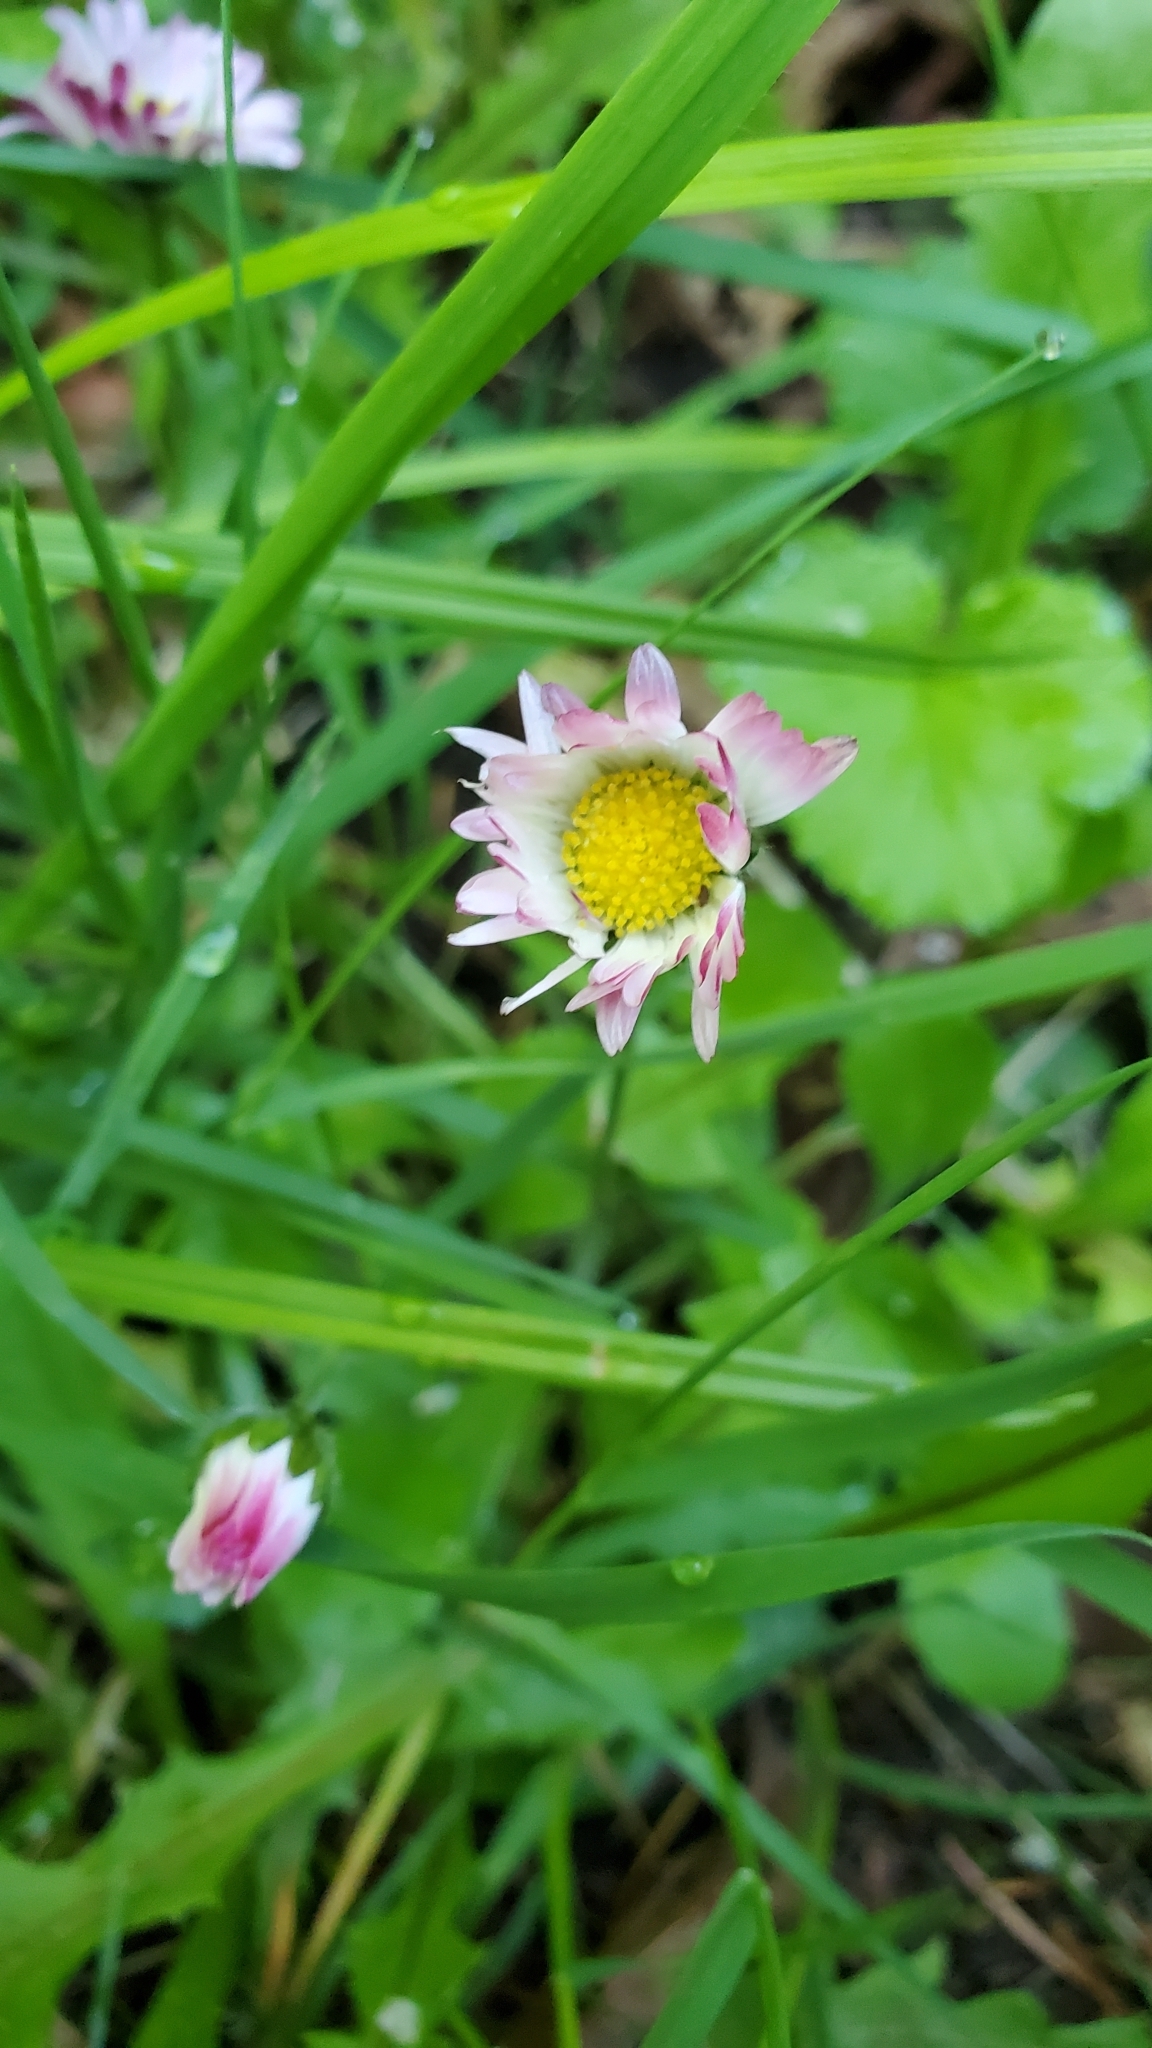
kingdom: Plantae
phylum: Tracheophyta
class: Magnoliopsida
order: Asterales
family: Asteraceae
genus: Bellis
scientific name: Bellis perennis
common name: Lawndaisy
